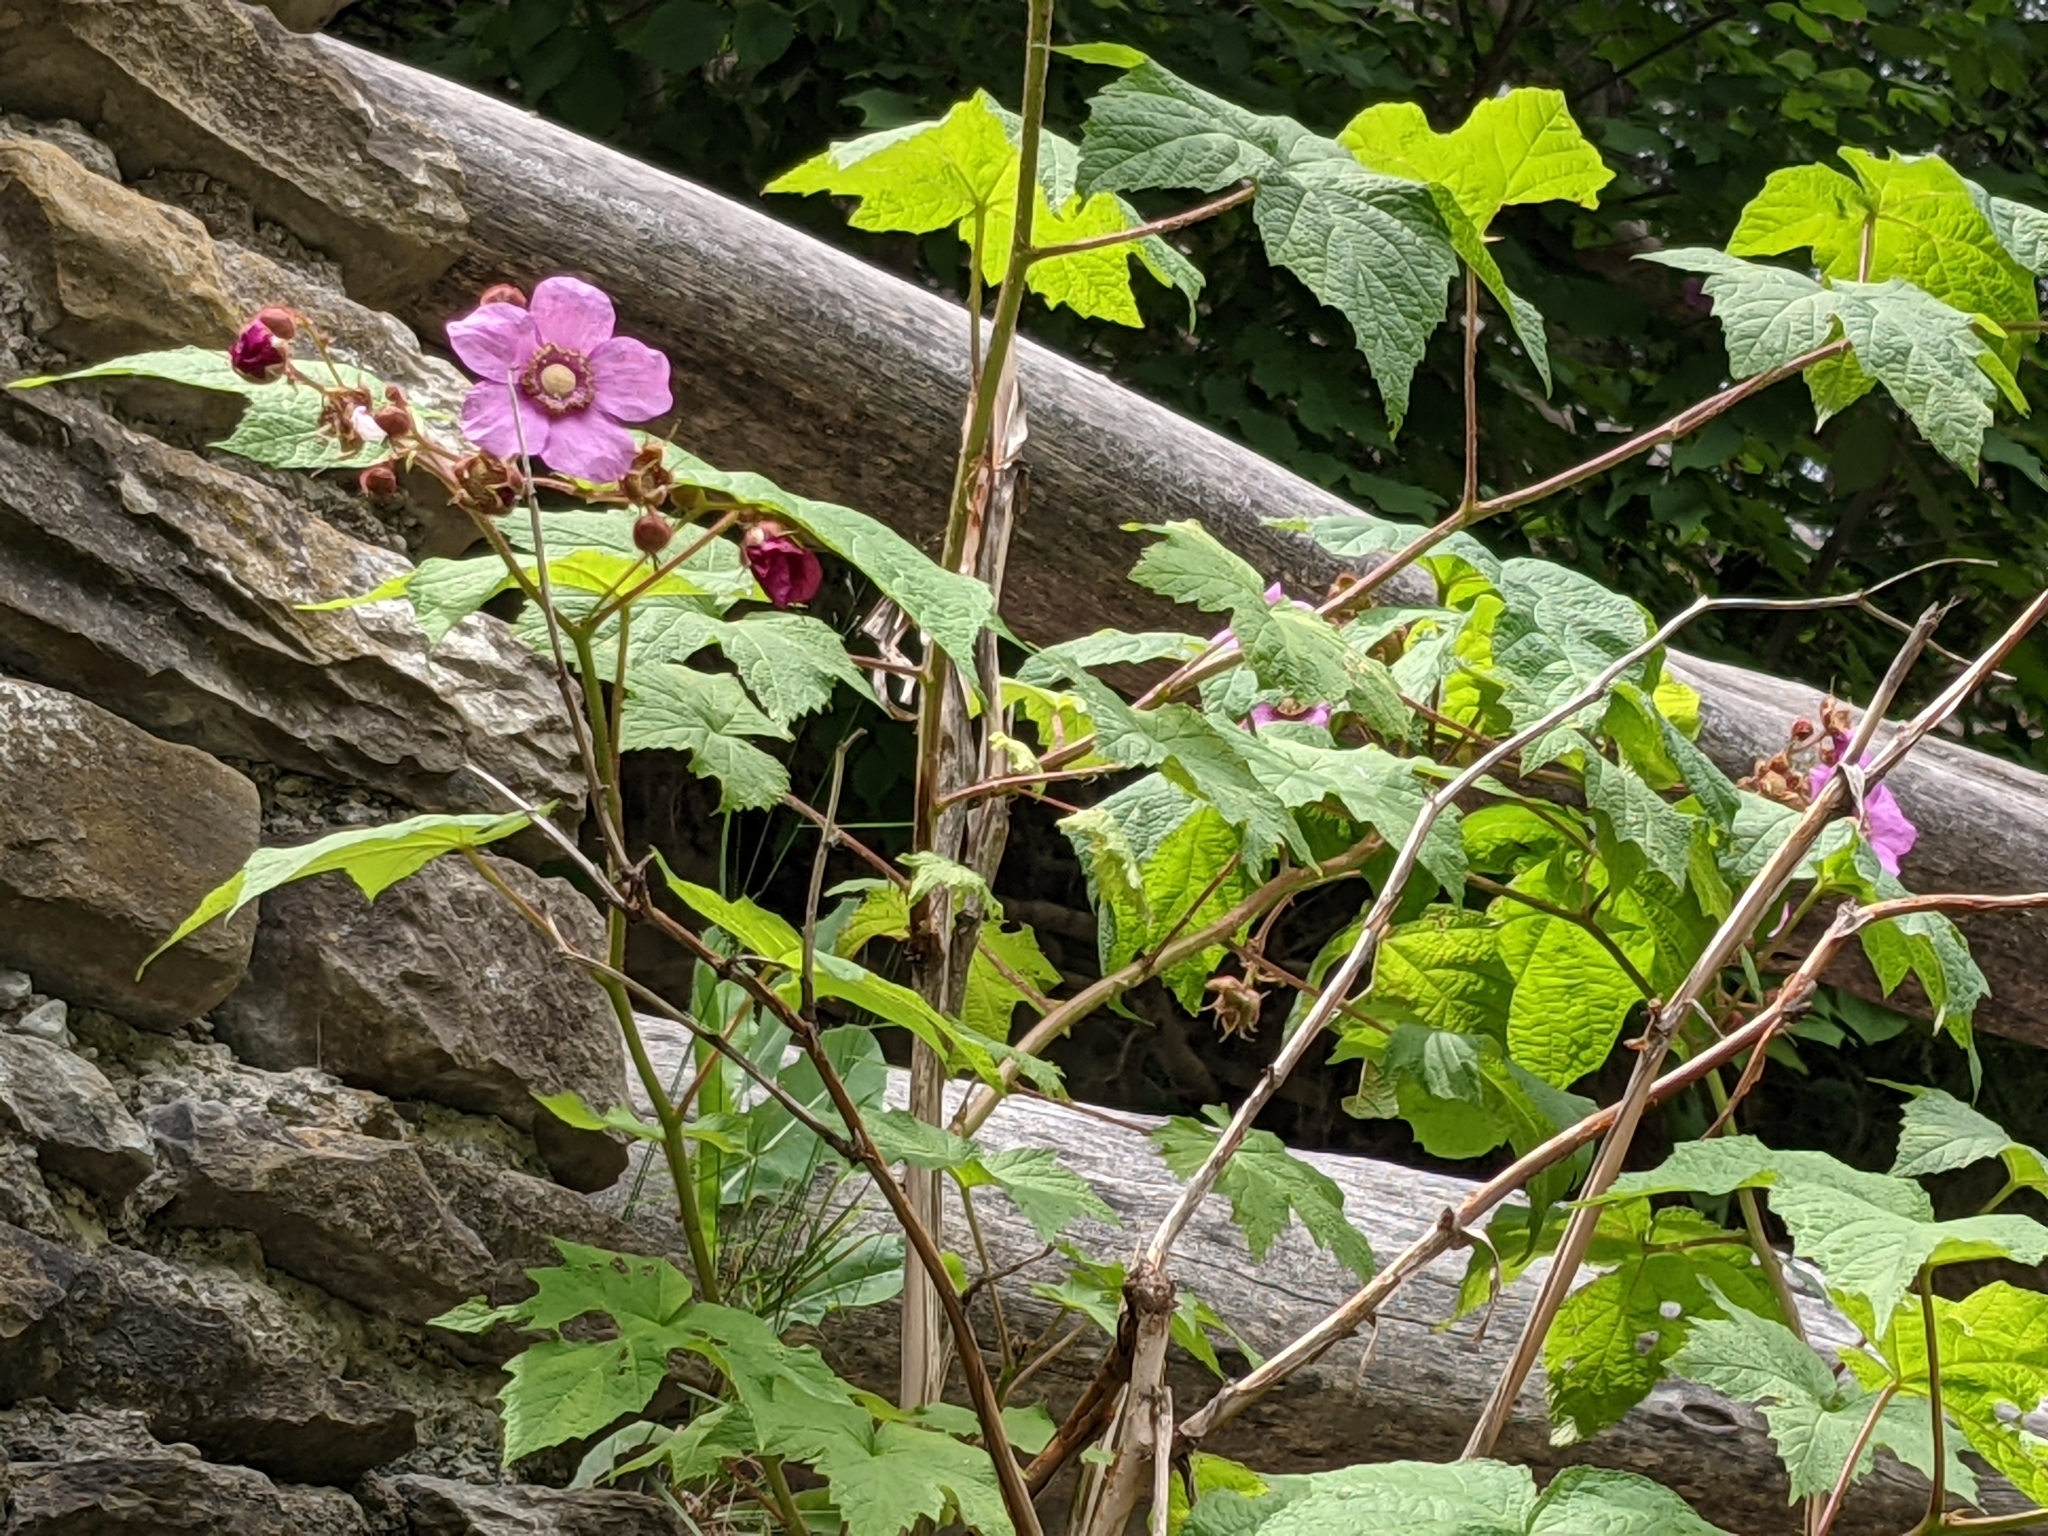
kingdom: Plantae
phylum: Tracheophyta
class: Magnoliopsida
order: Rosales
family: Rosaceae
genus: Rubus
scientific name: Rubus odoratus
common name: Purple-flowered raspberry
